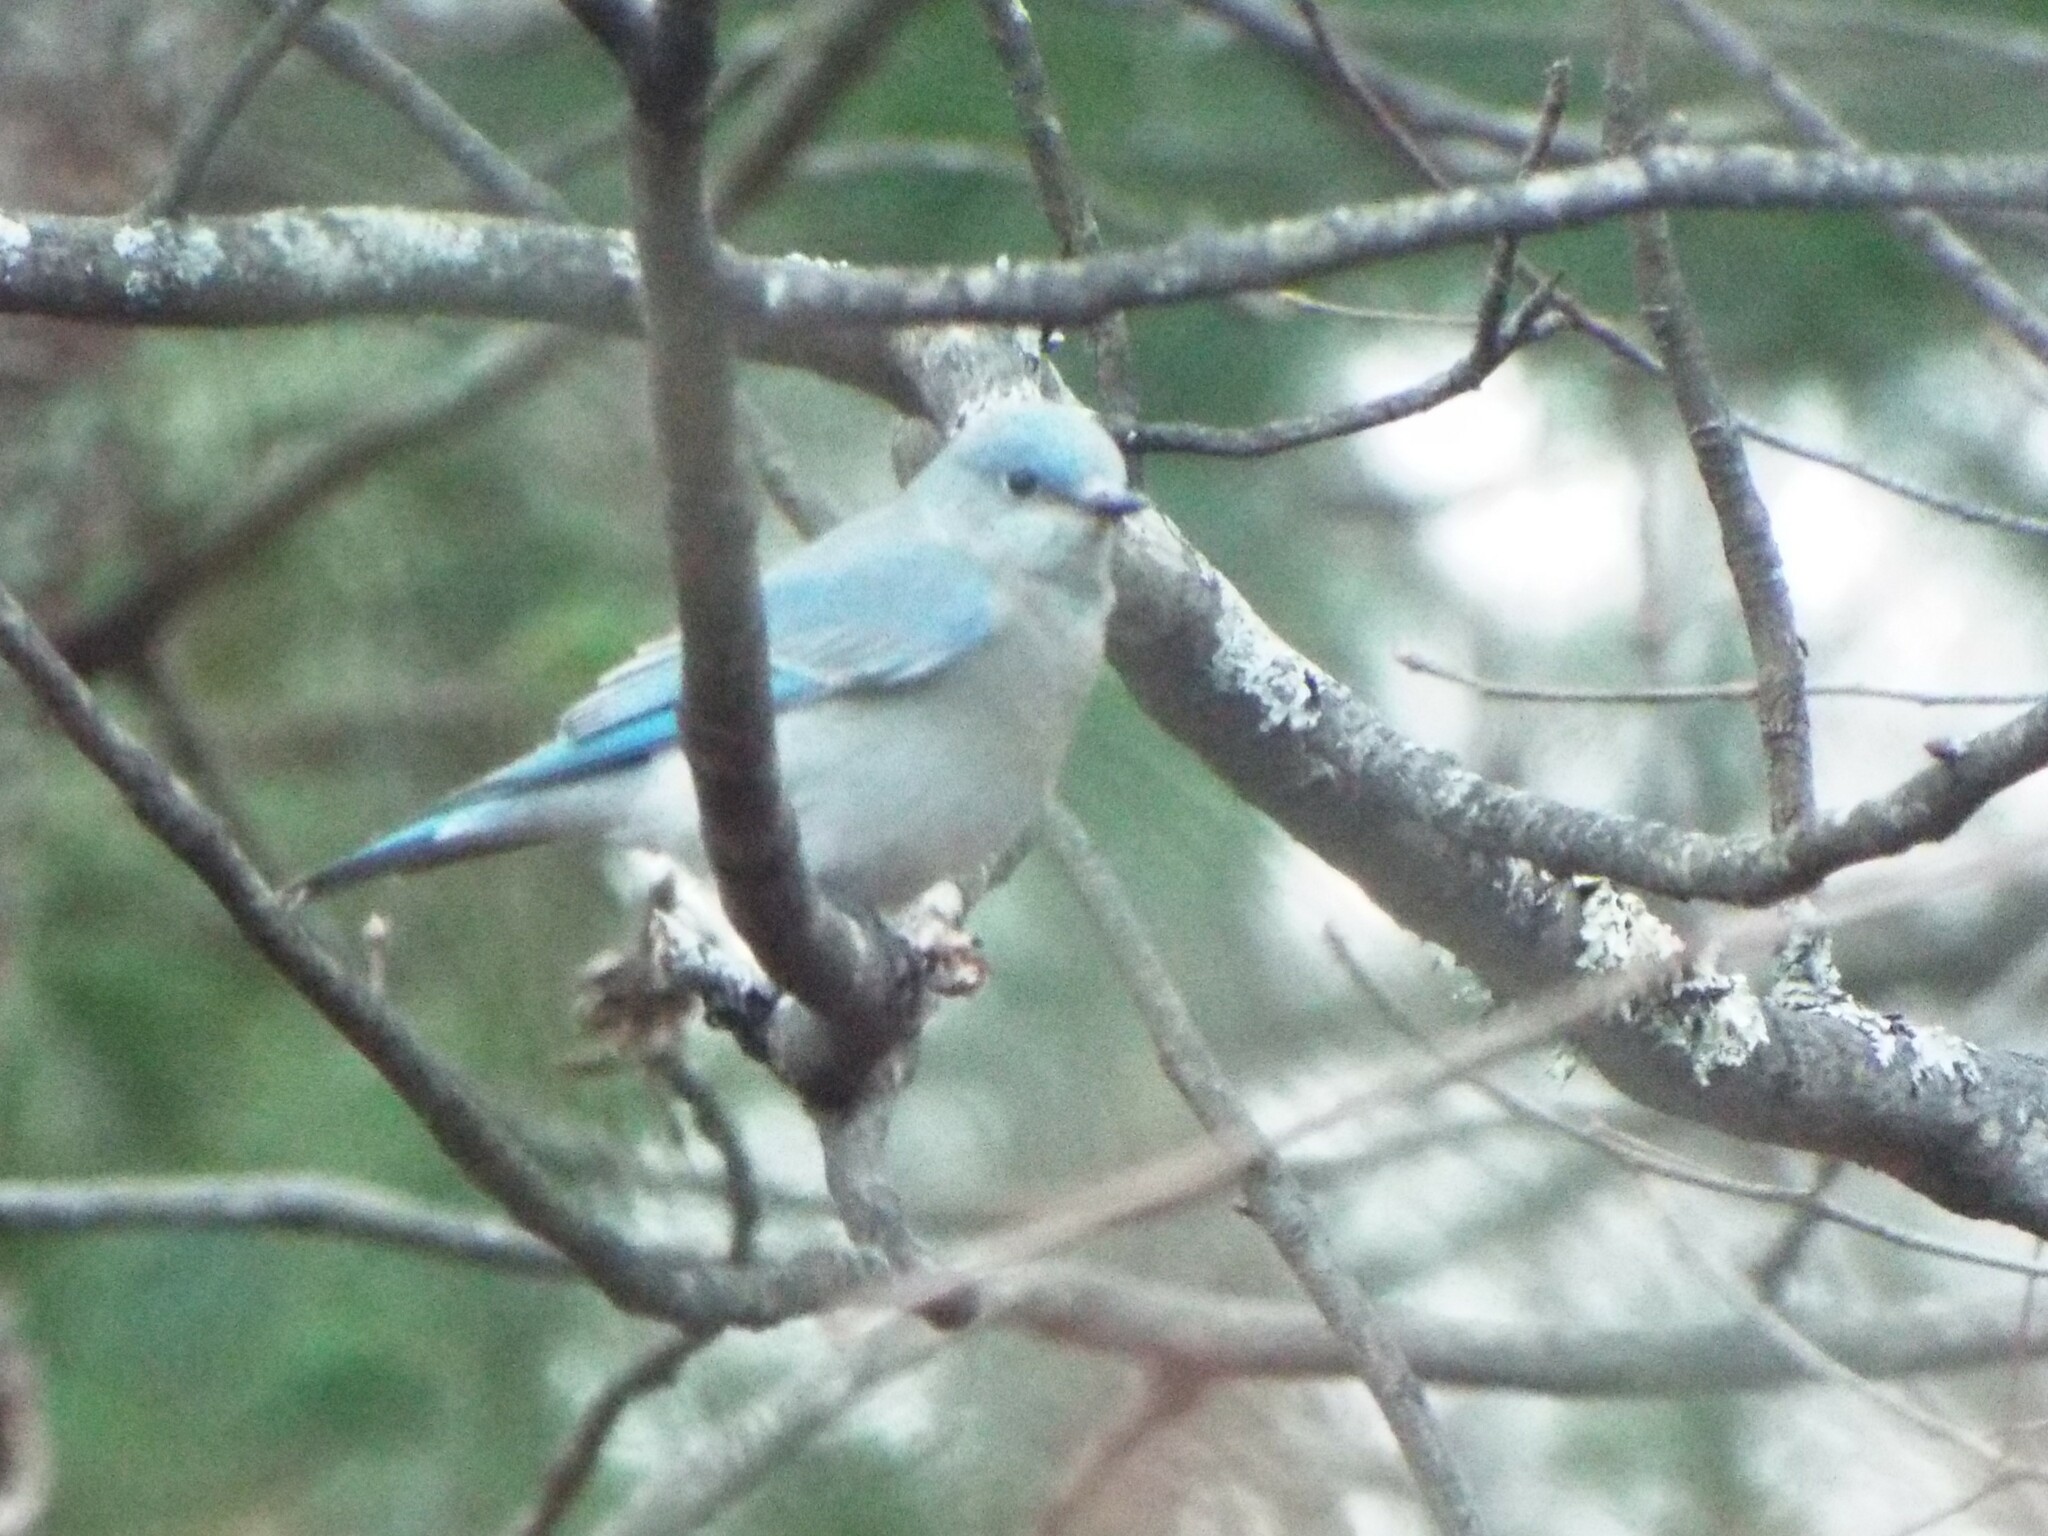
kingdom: Animalia
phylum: Chordata
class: Aves
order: Passeriformes
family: Turdidae
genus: Sialia
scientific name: Sialia currucoides
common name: Mountain bluebird
